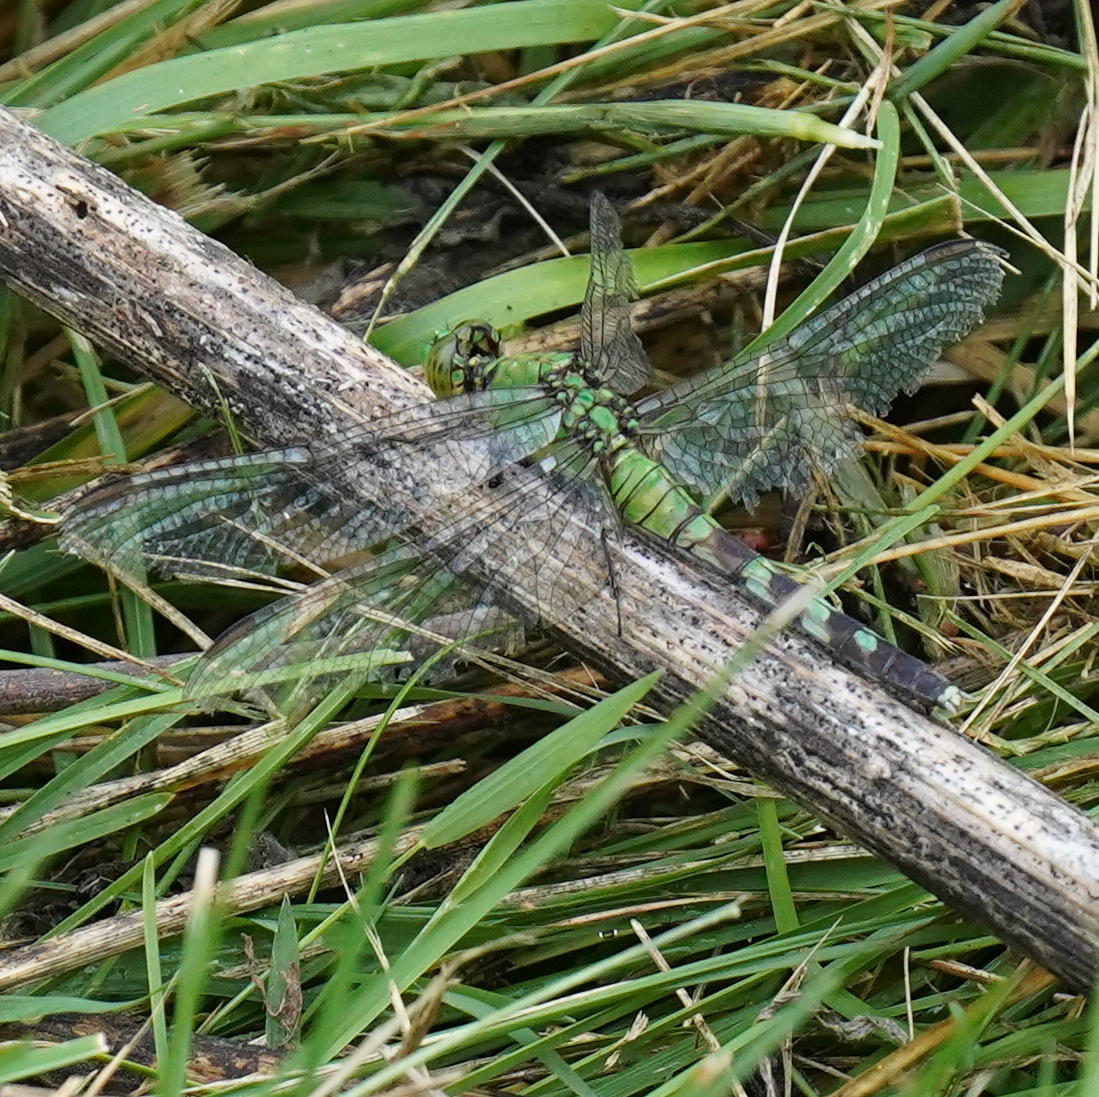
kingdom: Animalia
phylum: Arthropoda
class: Insecta
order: Odonata
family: Libellulidae
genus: Erythemis
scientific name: Erythemis simplicicollis
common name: Eastern pondhawk
